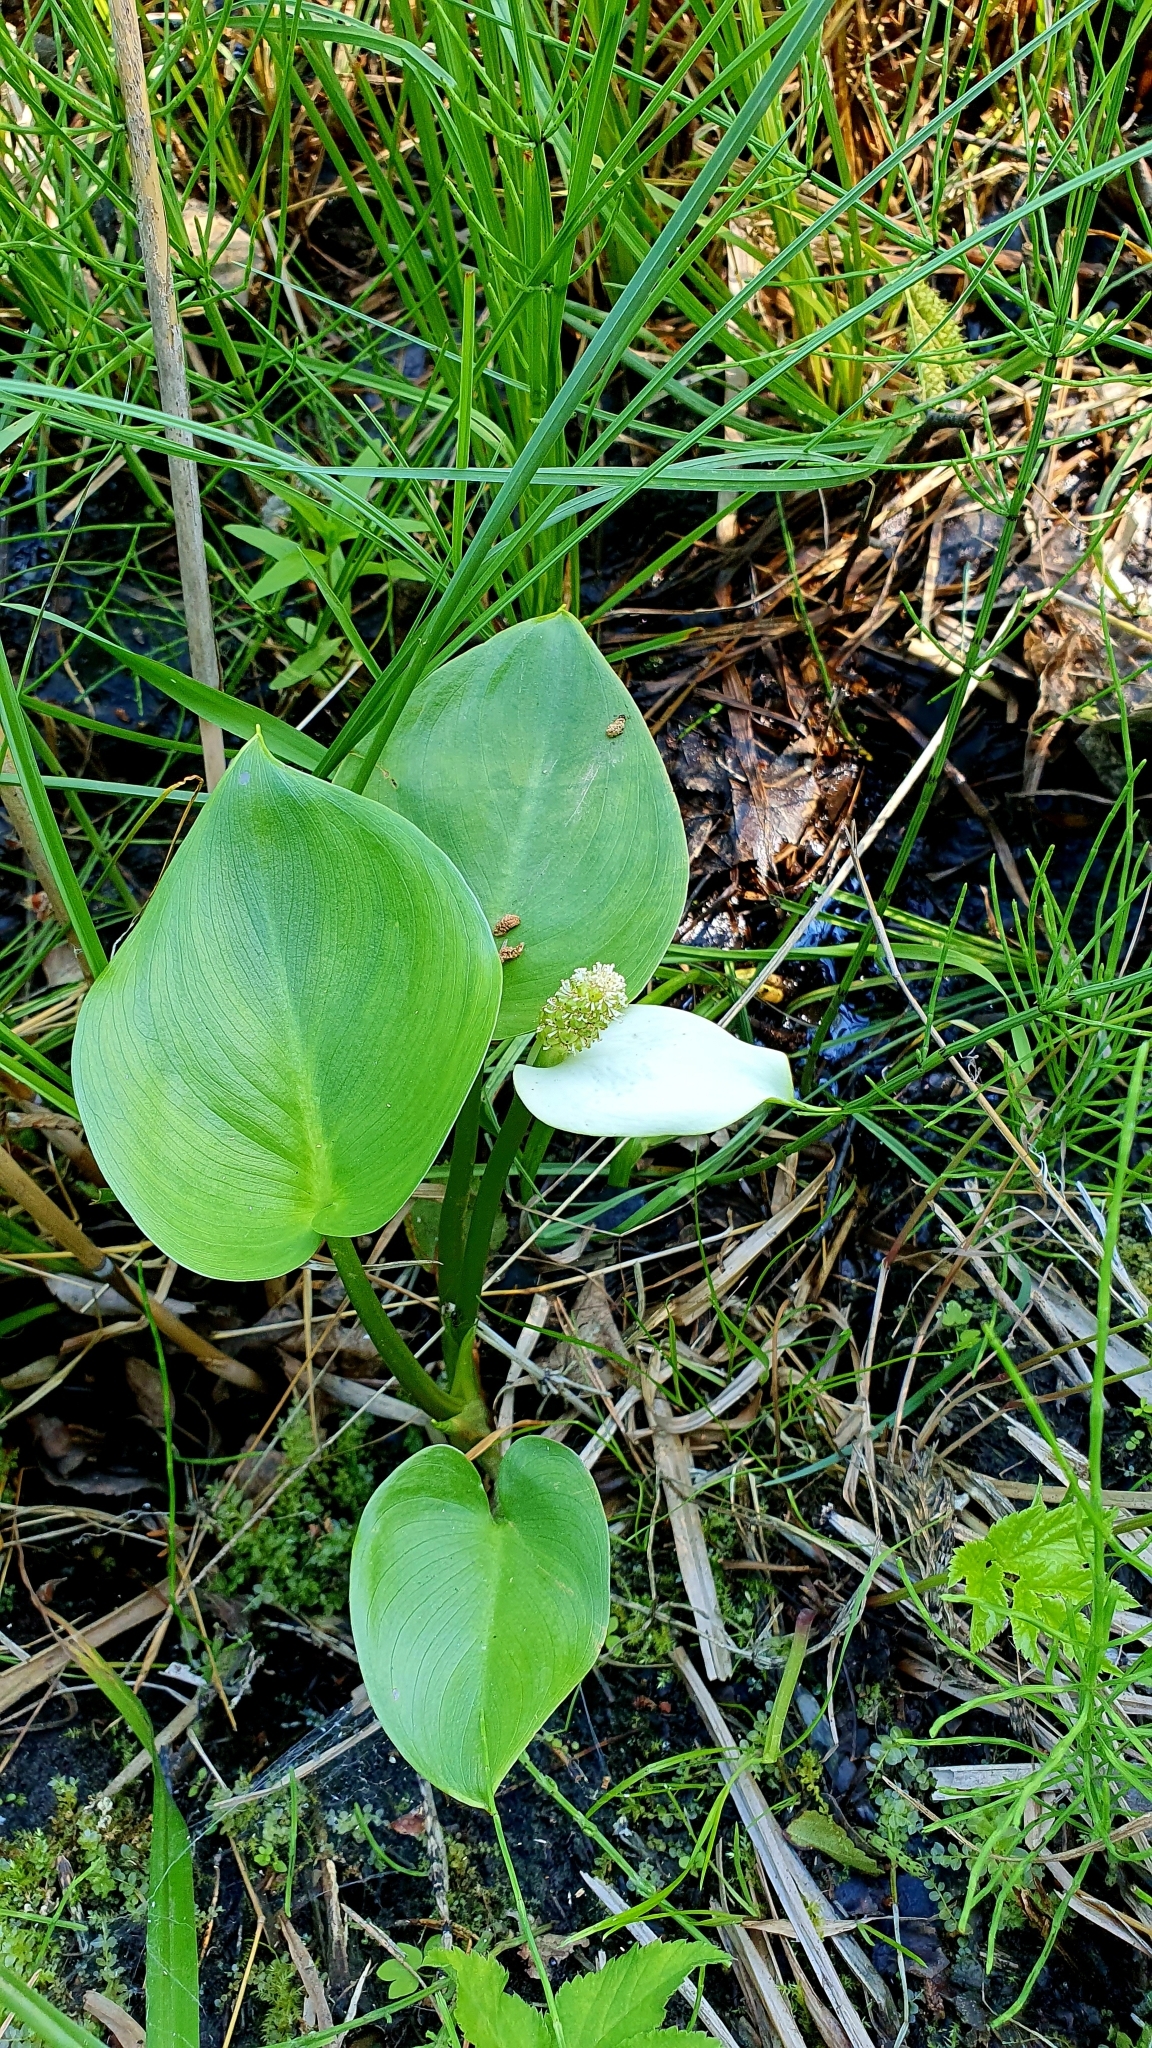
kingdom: Plantae
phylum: Tracheophyta
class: Liliopsida
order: Alismatales
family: Araceae
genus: Calla
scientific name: Calla palustris
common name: Bog arum
